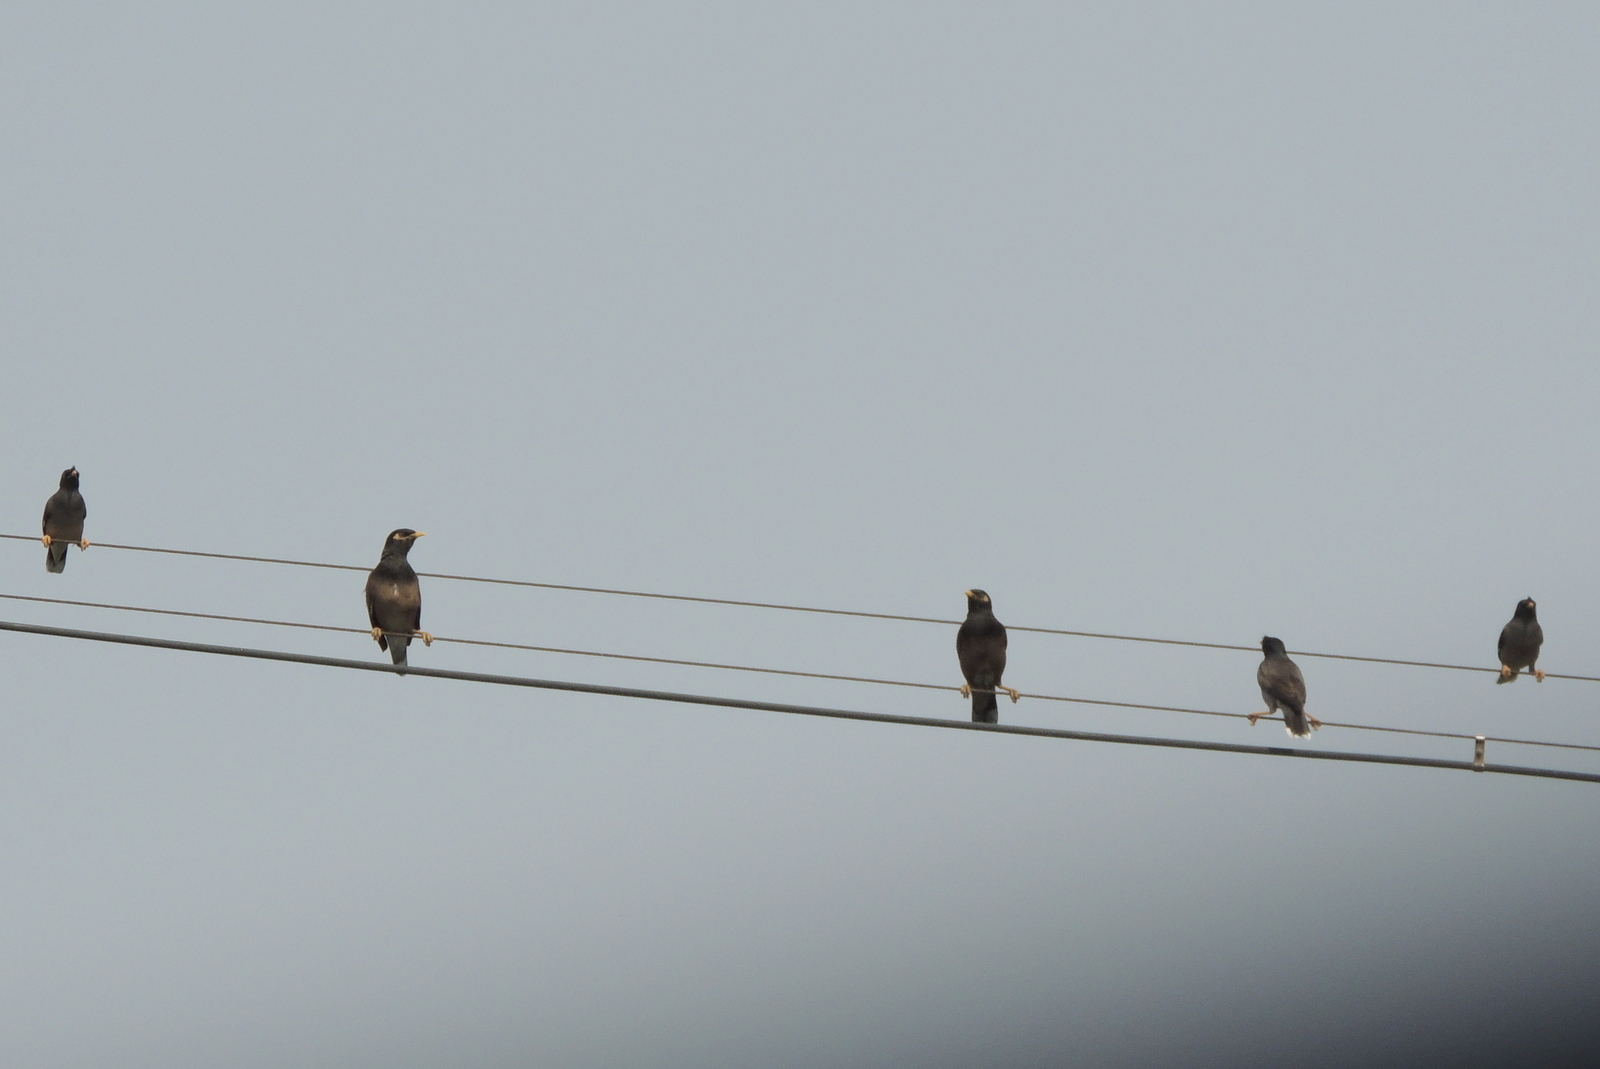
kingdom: Animalia
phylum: Chordata
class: Aves
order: Passeriformes
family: Sturnidae
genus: Acridotheres
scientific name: Acridotheres tristis
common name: Common myna
